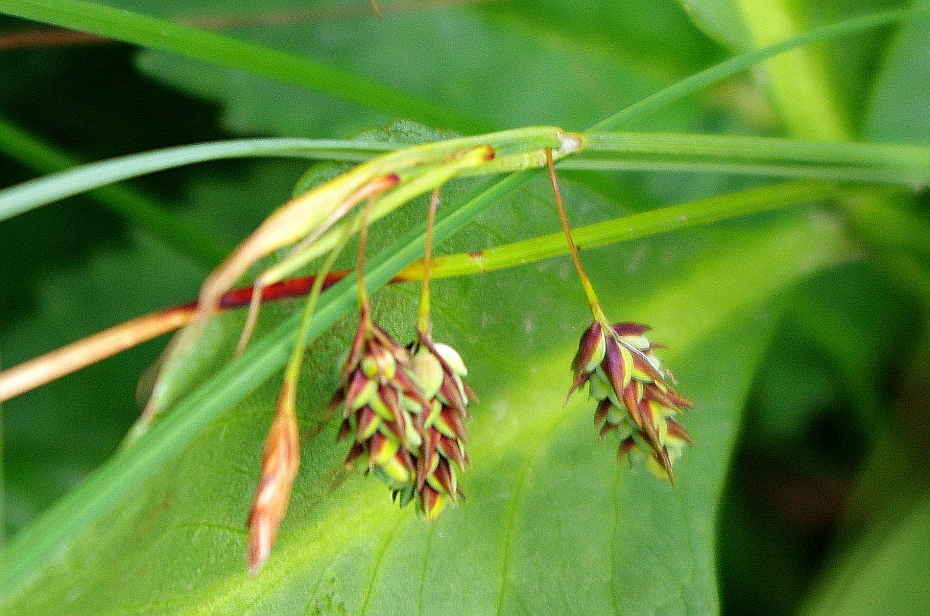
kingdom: Plantae
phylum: Tracheophyta
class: Liliopsida
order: Poales
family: Cyperaceae
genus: Carex
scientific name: Carex magellanica
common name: Bog sedge
